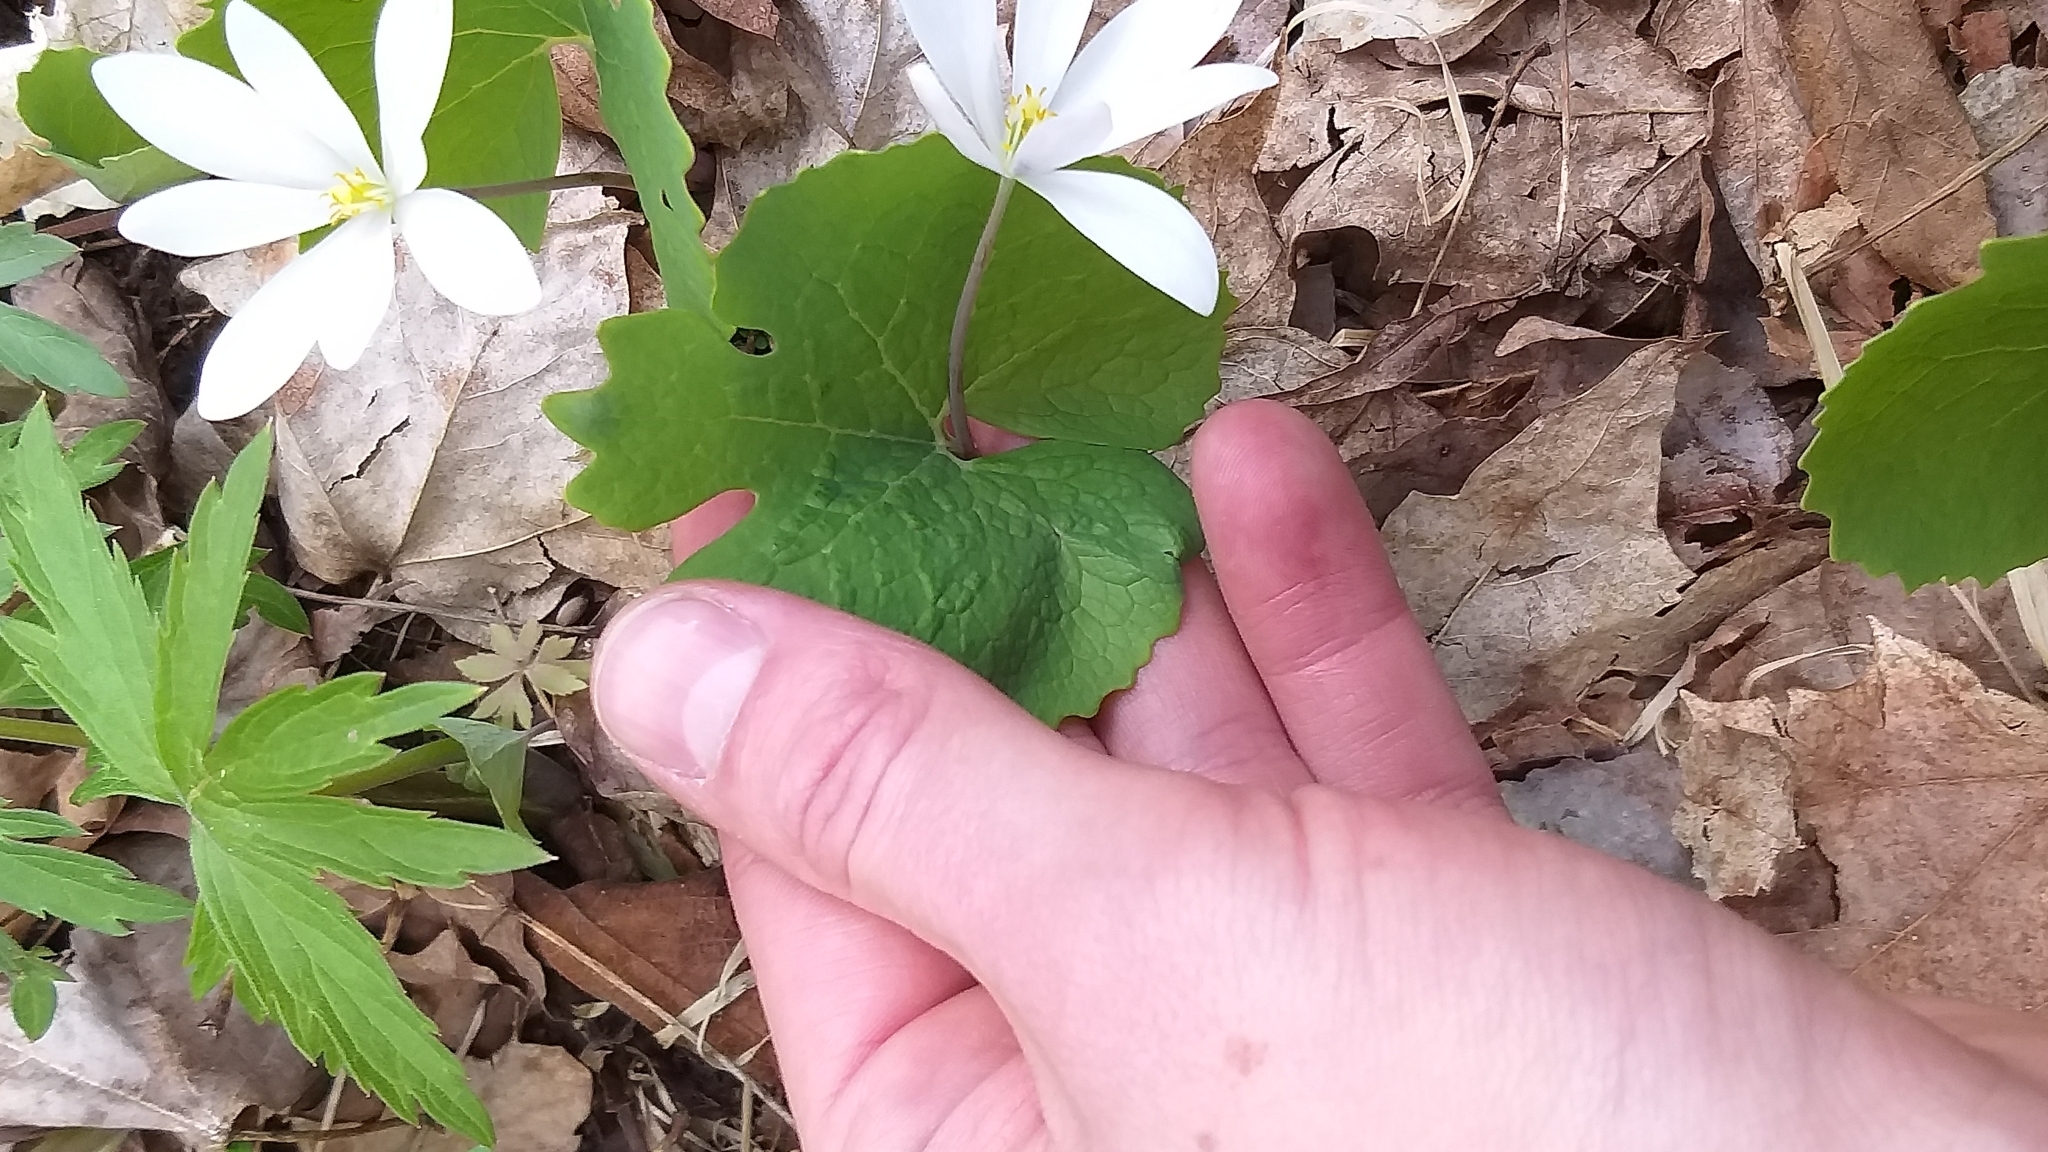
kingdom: Plantae
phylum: Tracheophyta
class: Magnoliopsida
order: Ranunculales
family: Papaveraceae
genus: Sanguinaria
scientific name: Sanguinaria canadensis
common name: Bloodroot
